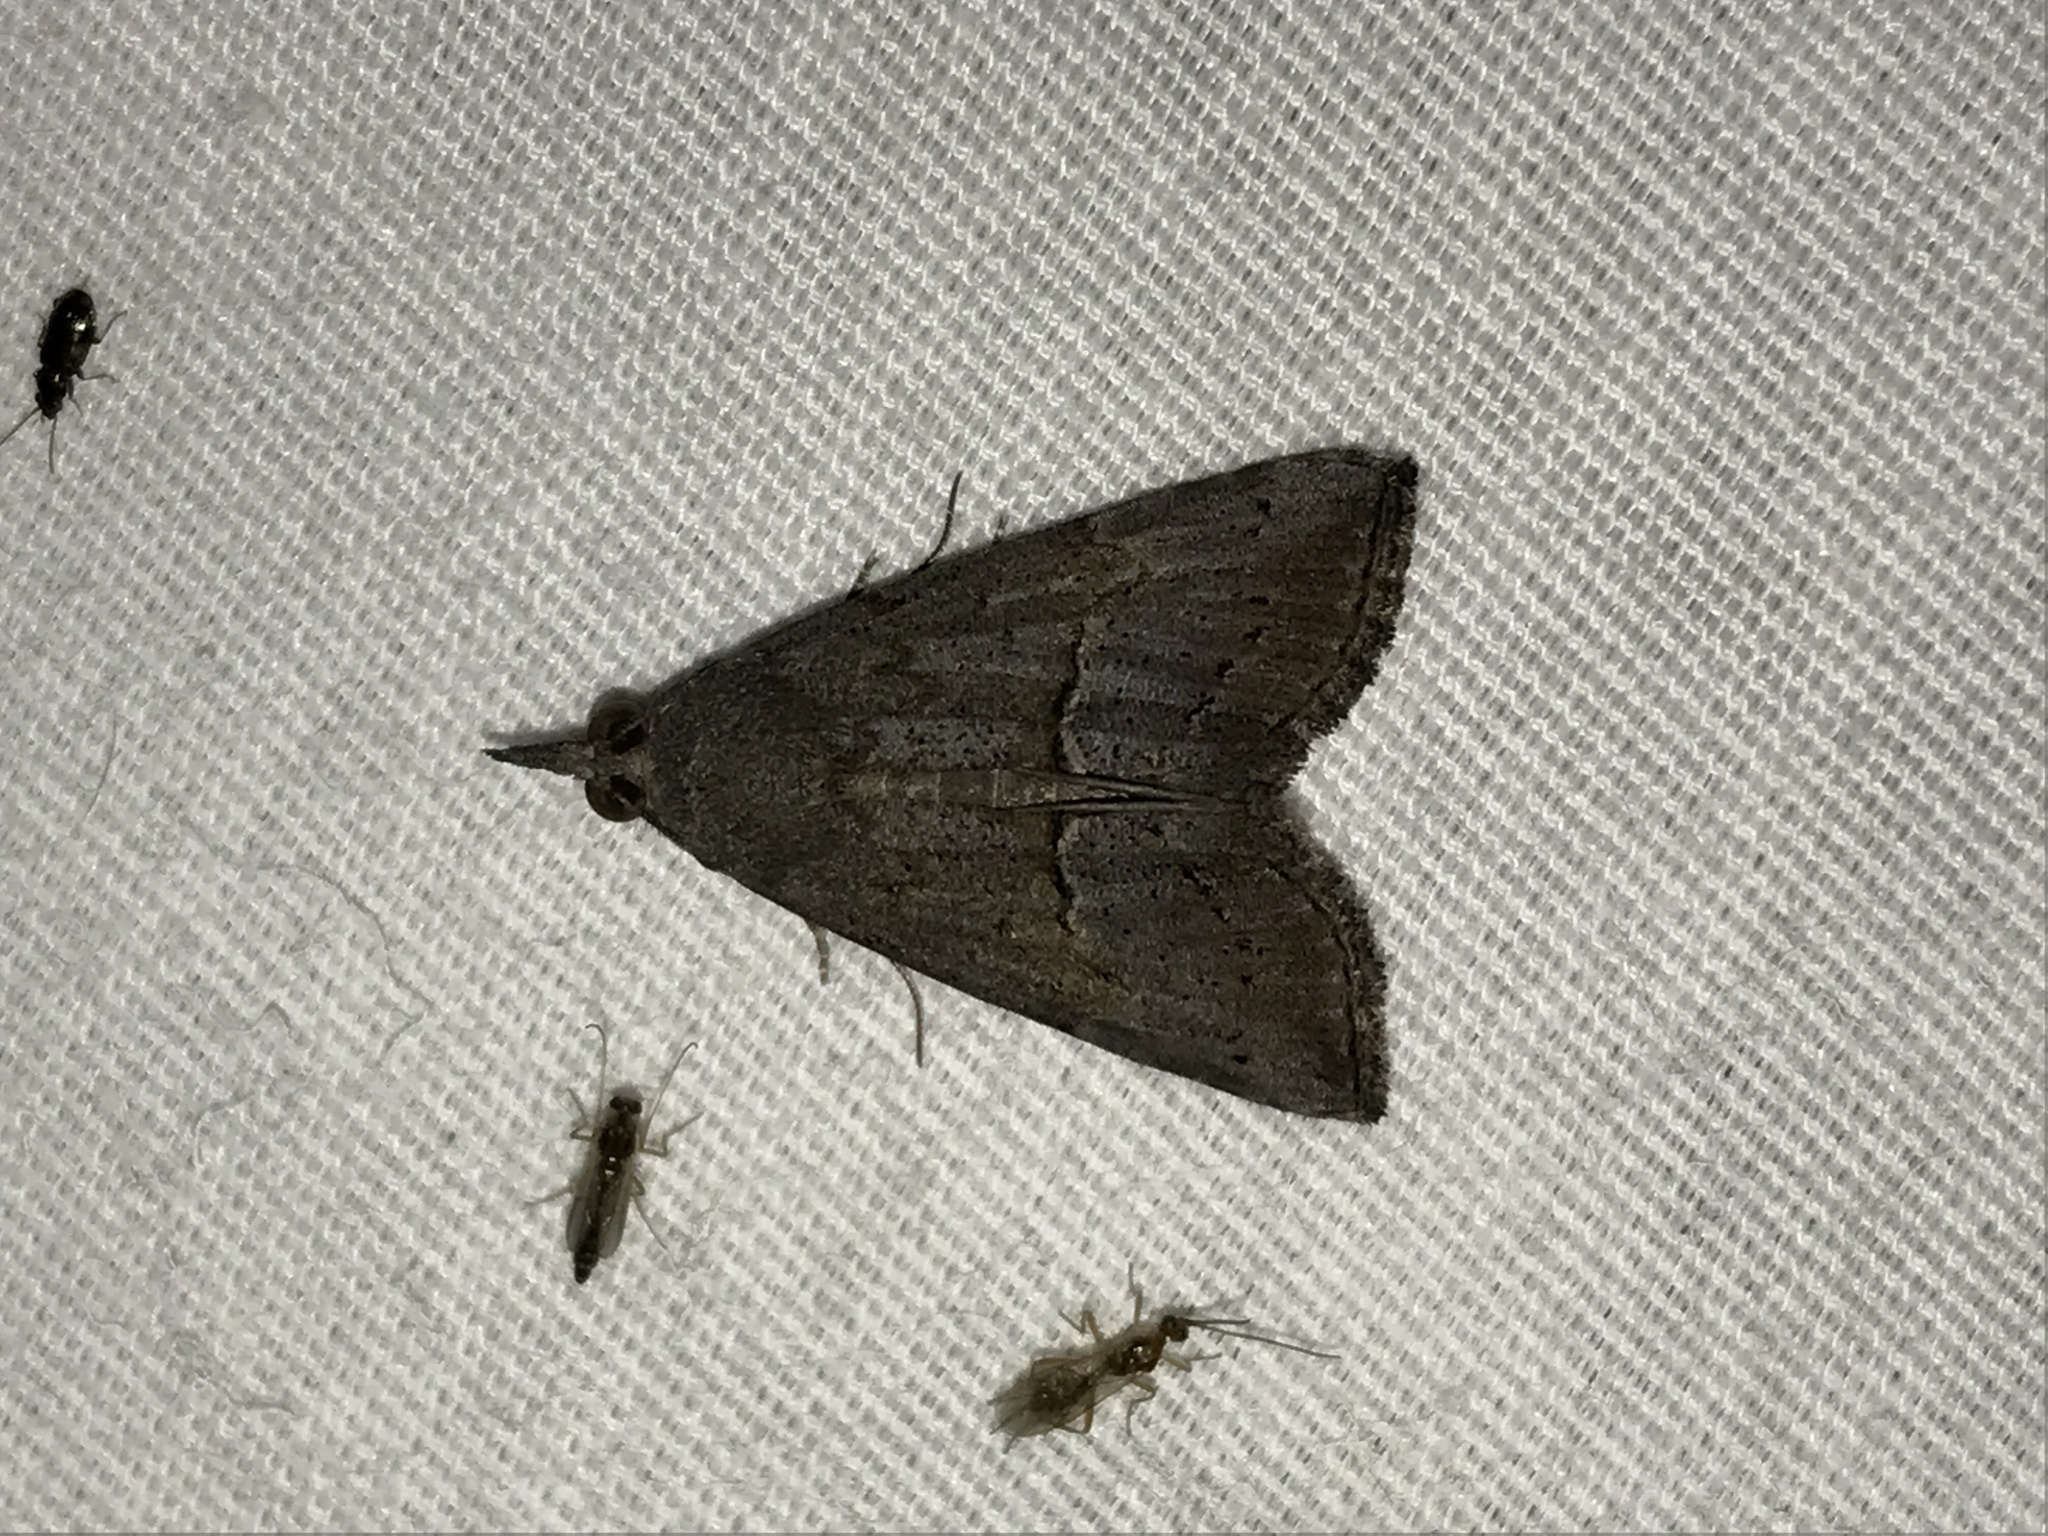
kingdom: Animalia
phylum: Arthropoda
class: Insecta
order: Lepidoptera
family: Erebidae
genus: Hypena
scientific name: Hypena scabra
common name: Green cloverworm
